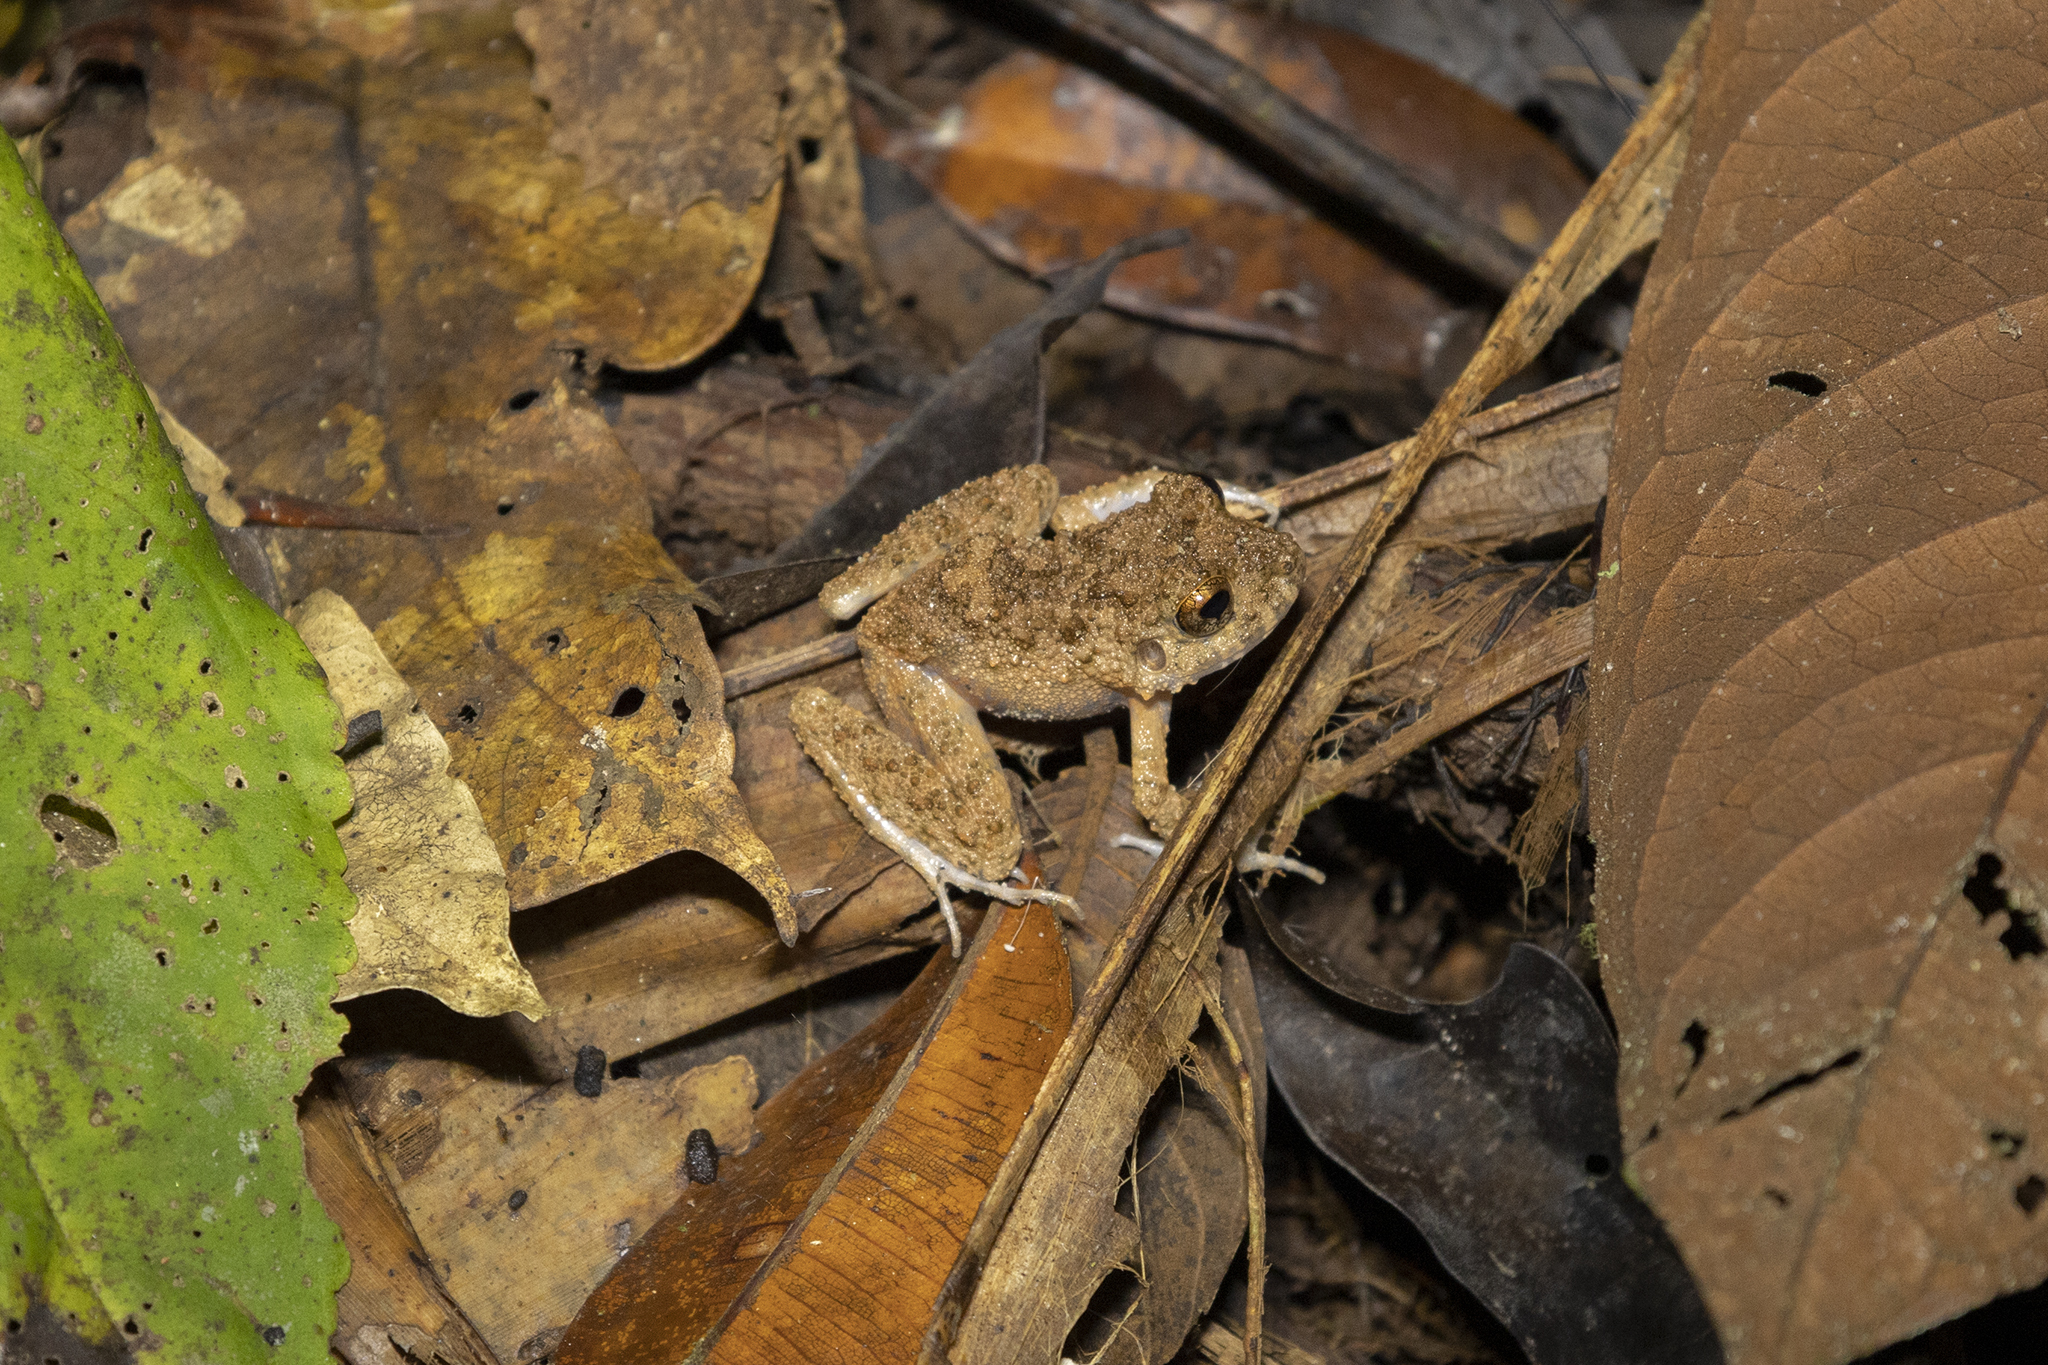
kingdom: Animalia
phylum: Chordata
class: Amphibia
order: Anura
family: Craugastoridae
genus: Oreobates
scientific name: Oreobates quixensis
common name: Common big-headed frog
